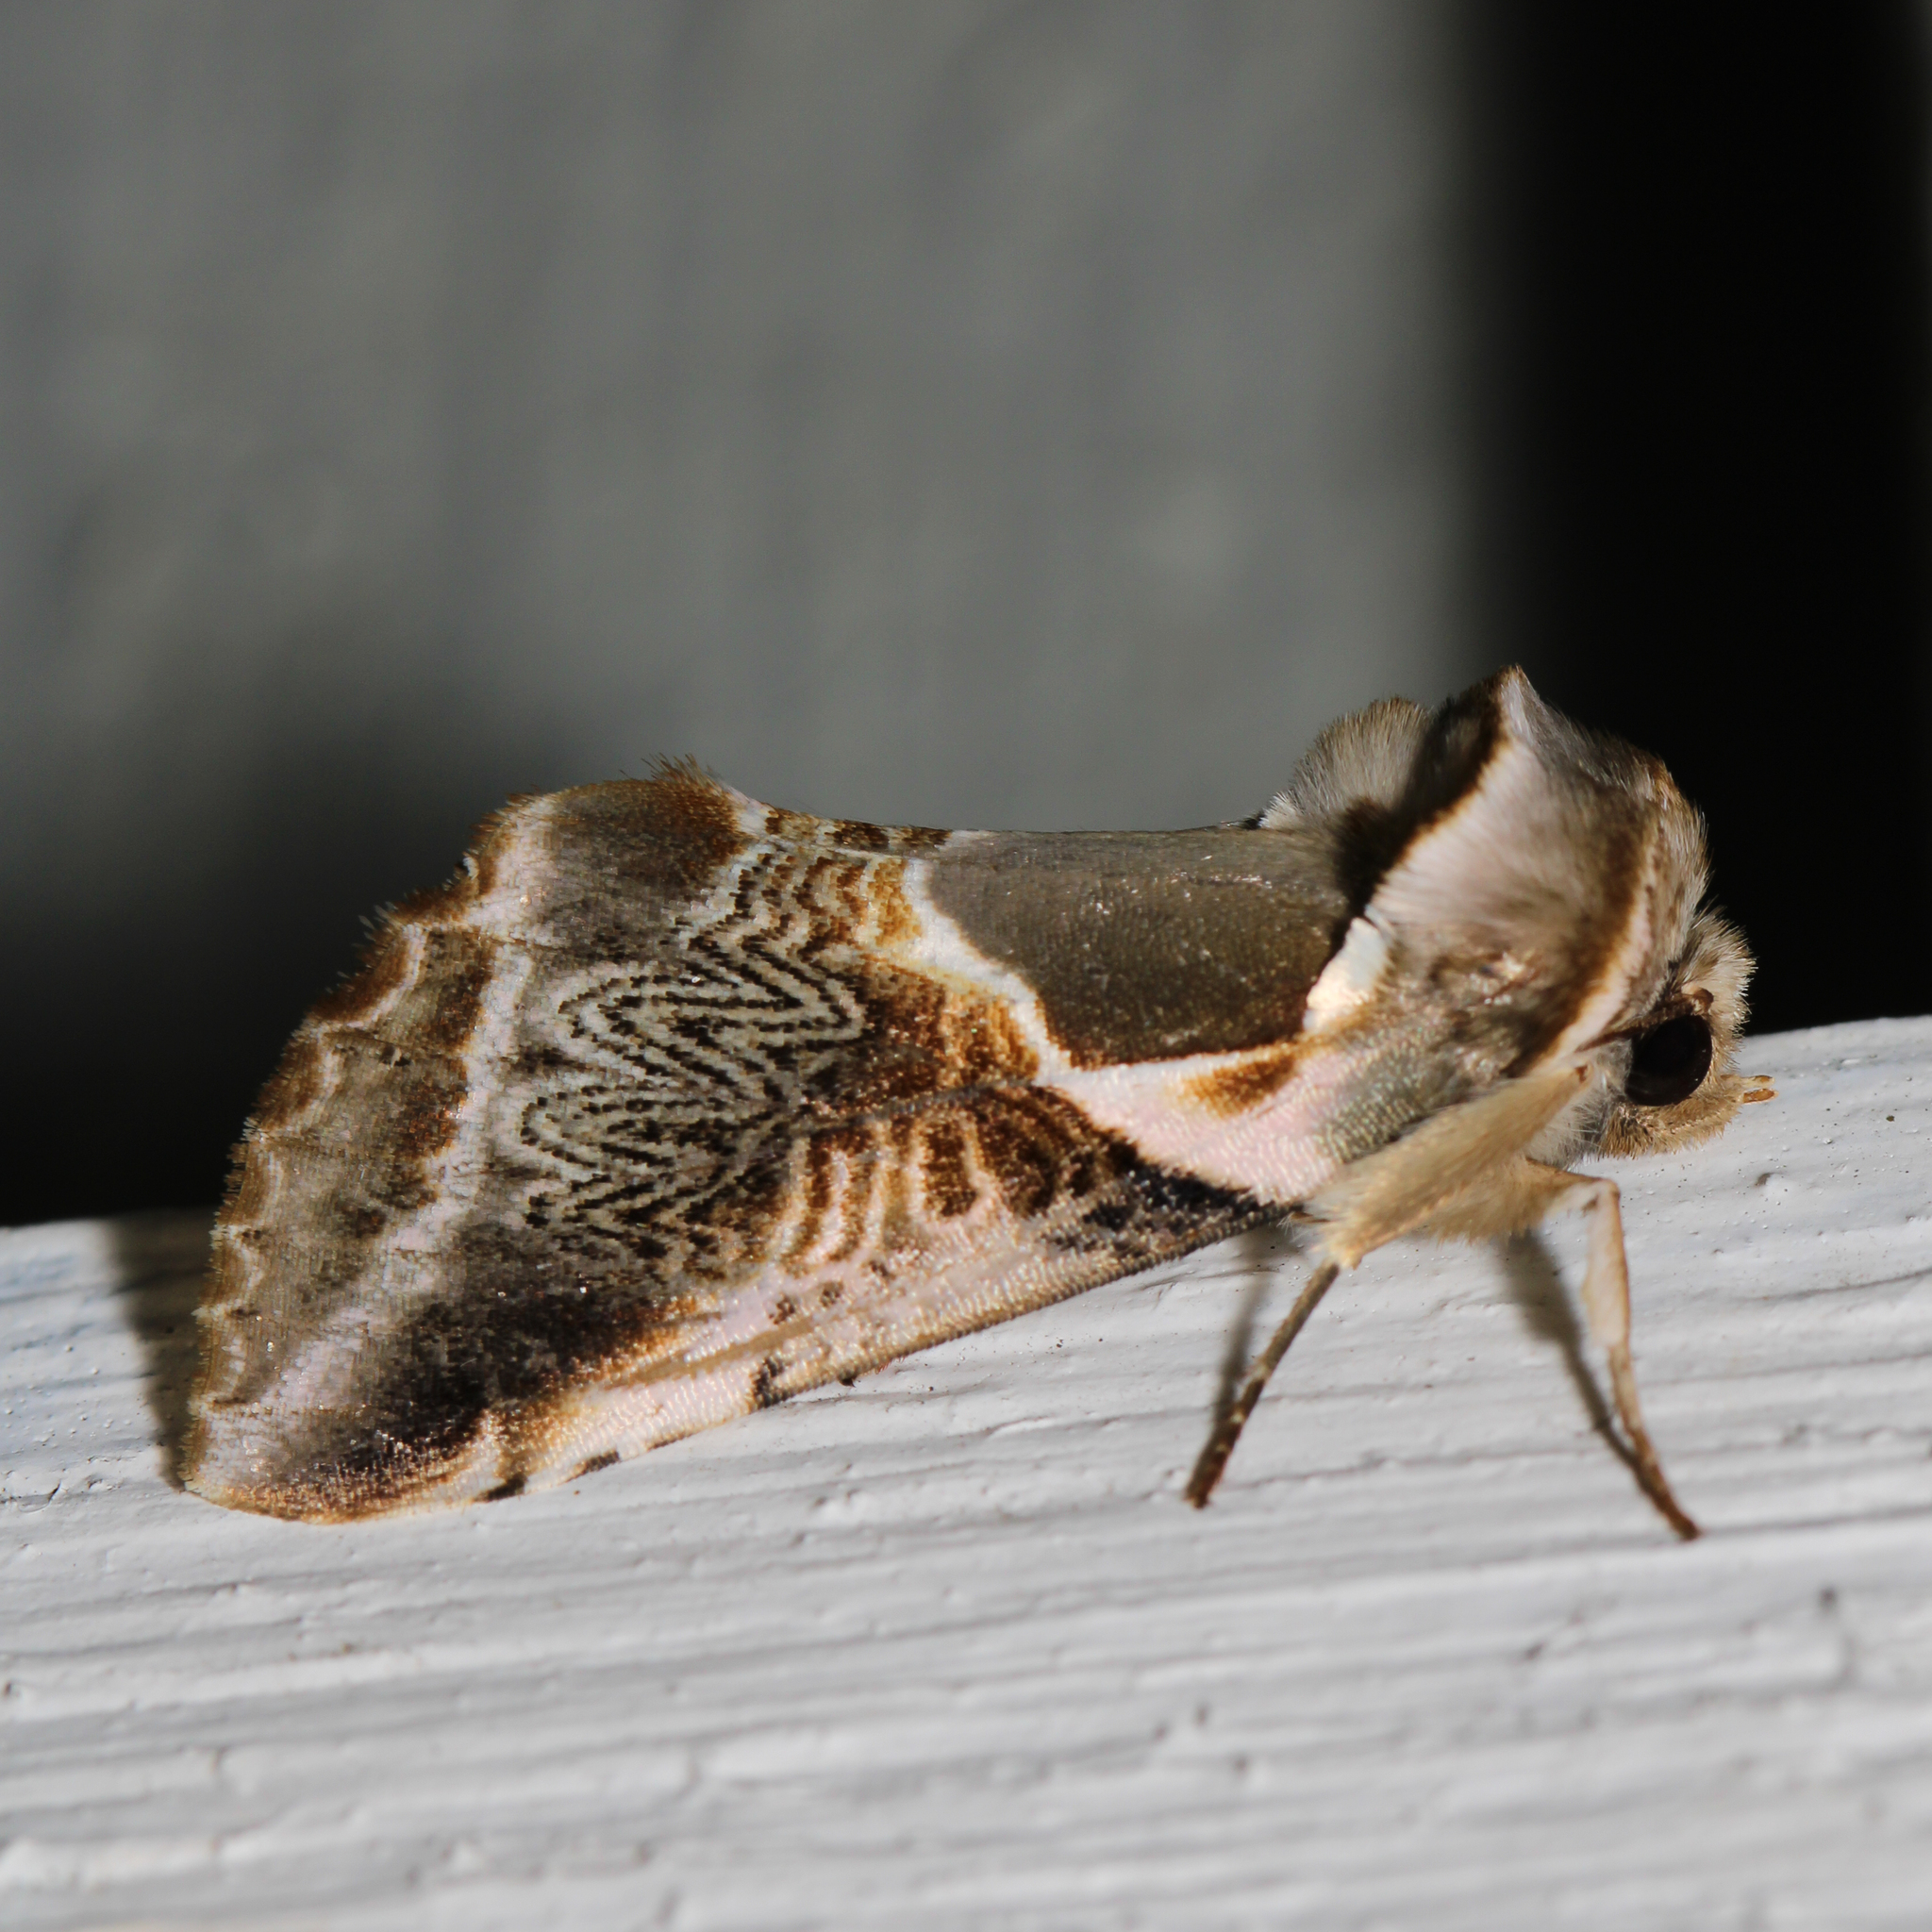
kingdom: Animalia
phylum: Arthropoda
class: Insecta
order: Lepidoptera
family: Drepanidae
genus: Habrosyne
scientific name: Habrosyne scripta
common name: Lettered habrosyne moth
